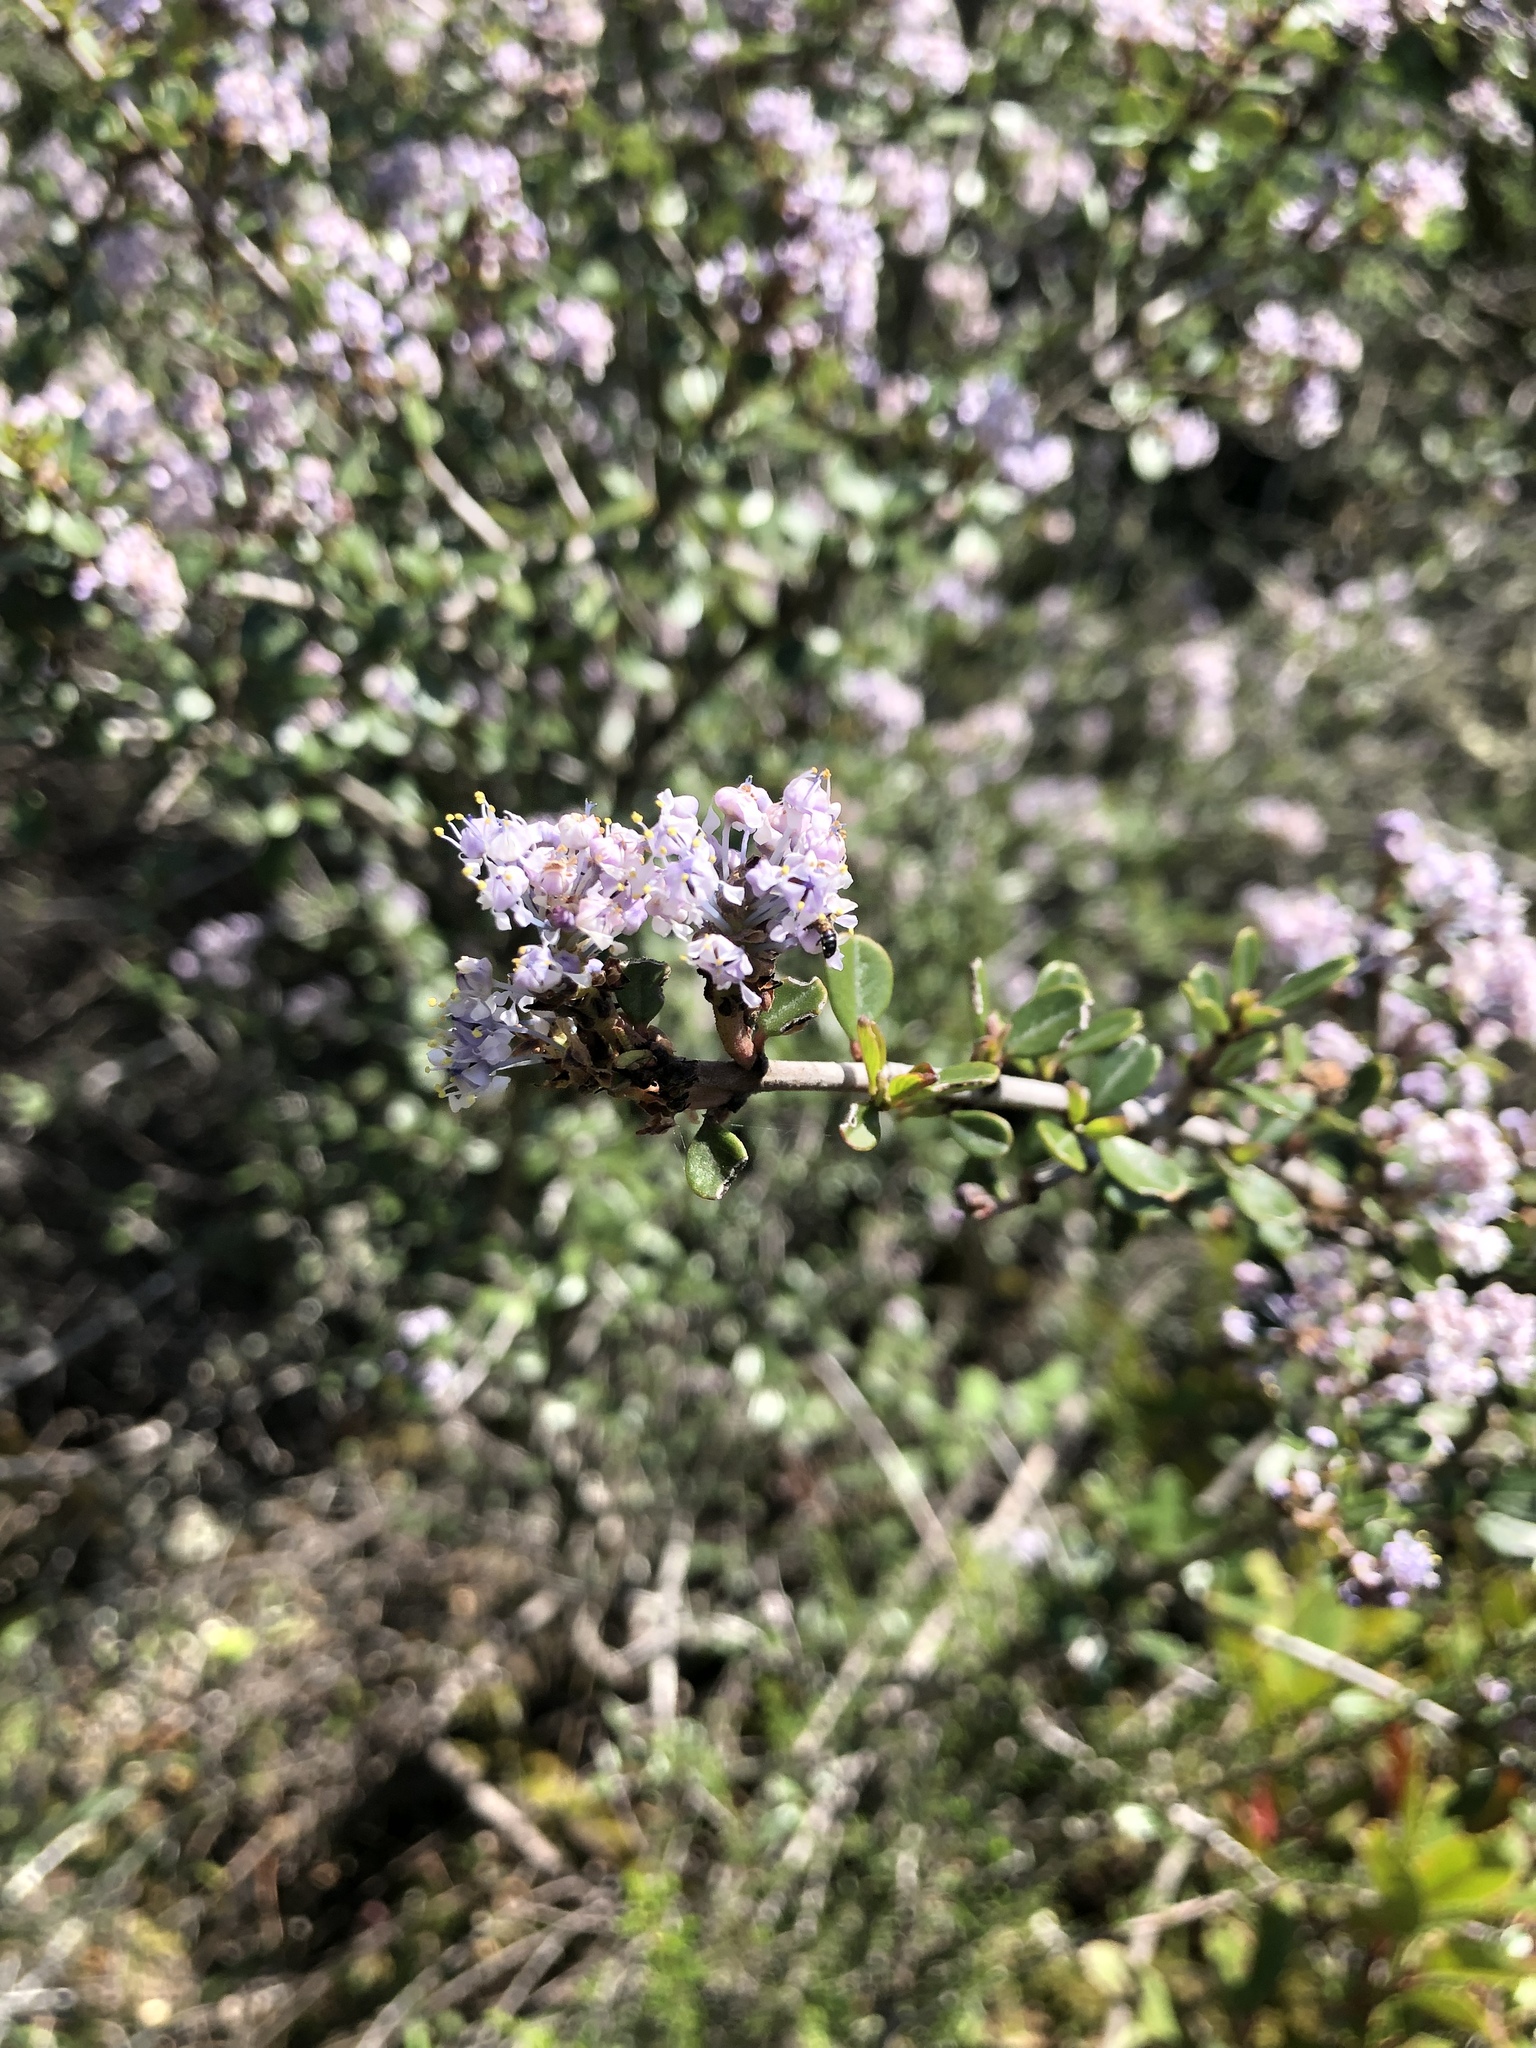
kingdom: Plantae
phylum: Tracheophyta
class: Magnoliopsida
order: Rosales
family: Rhamnaceae
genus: Ceanothus
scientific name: Ceanothus cuneatus
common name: Cuneate ceanothus
